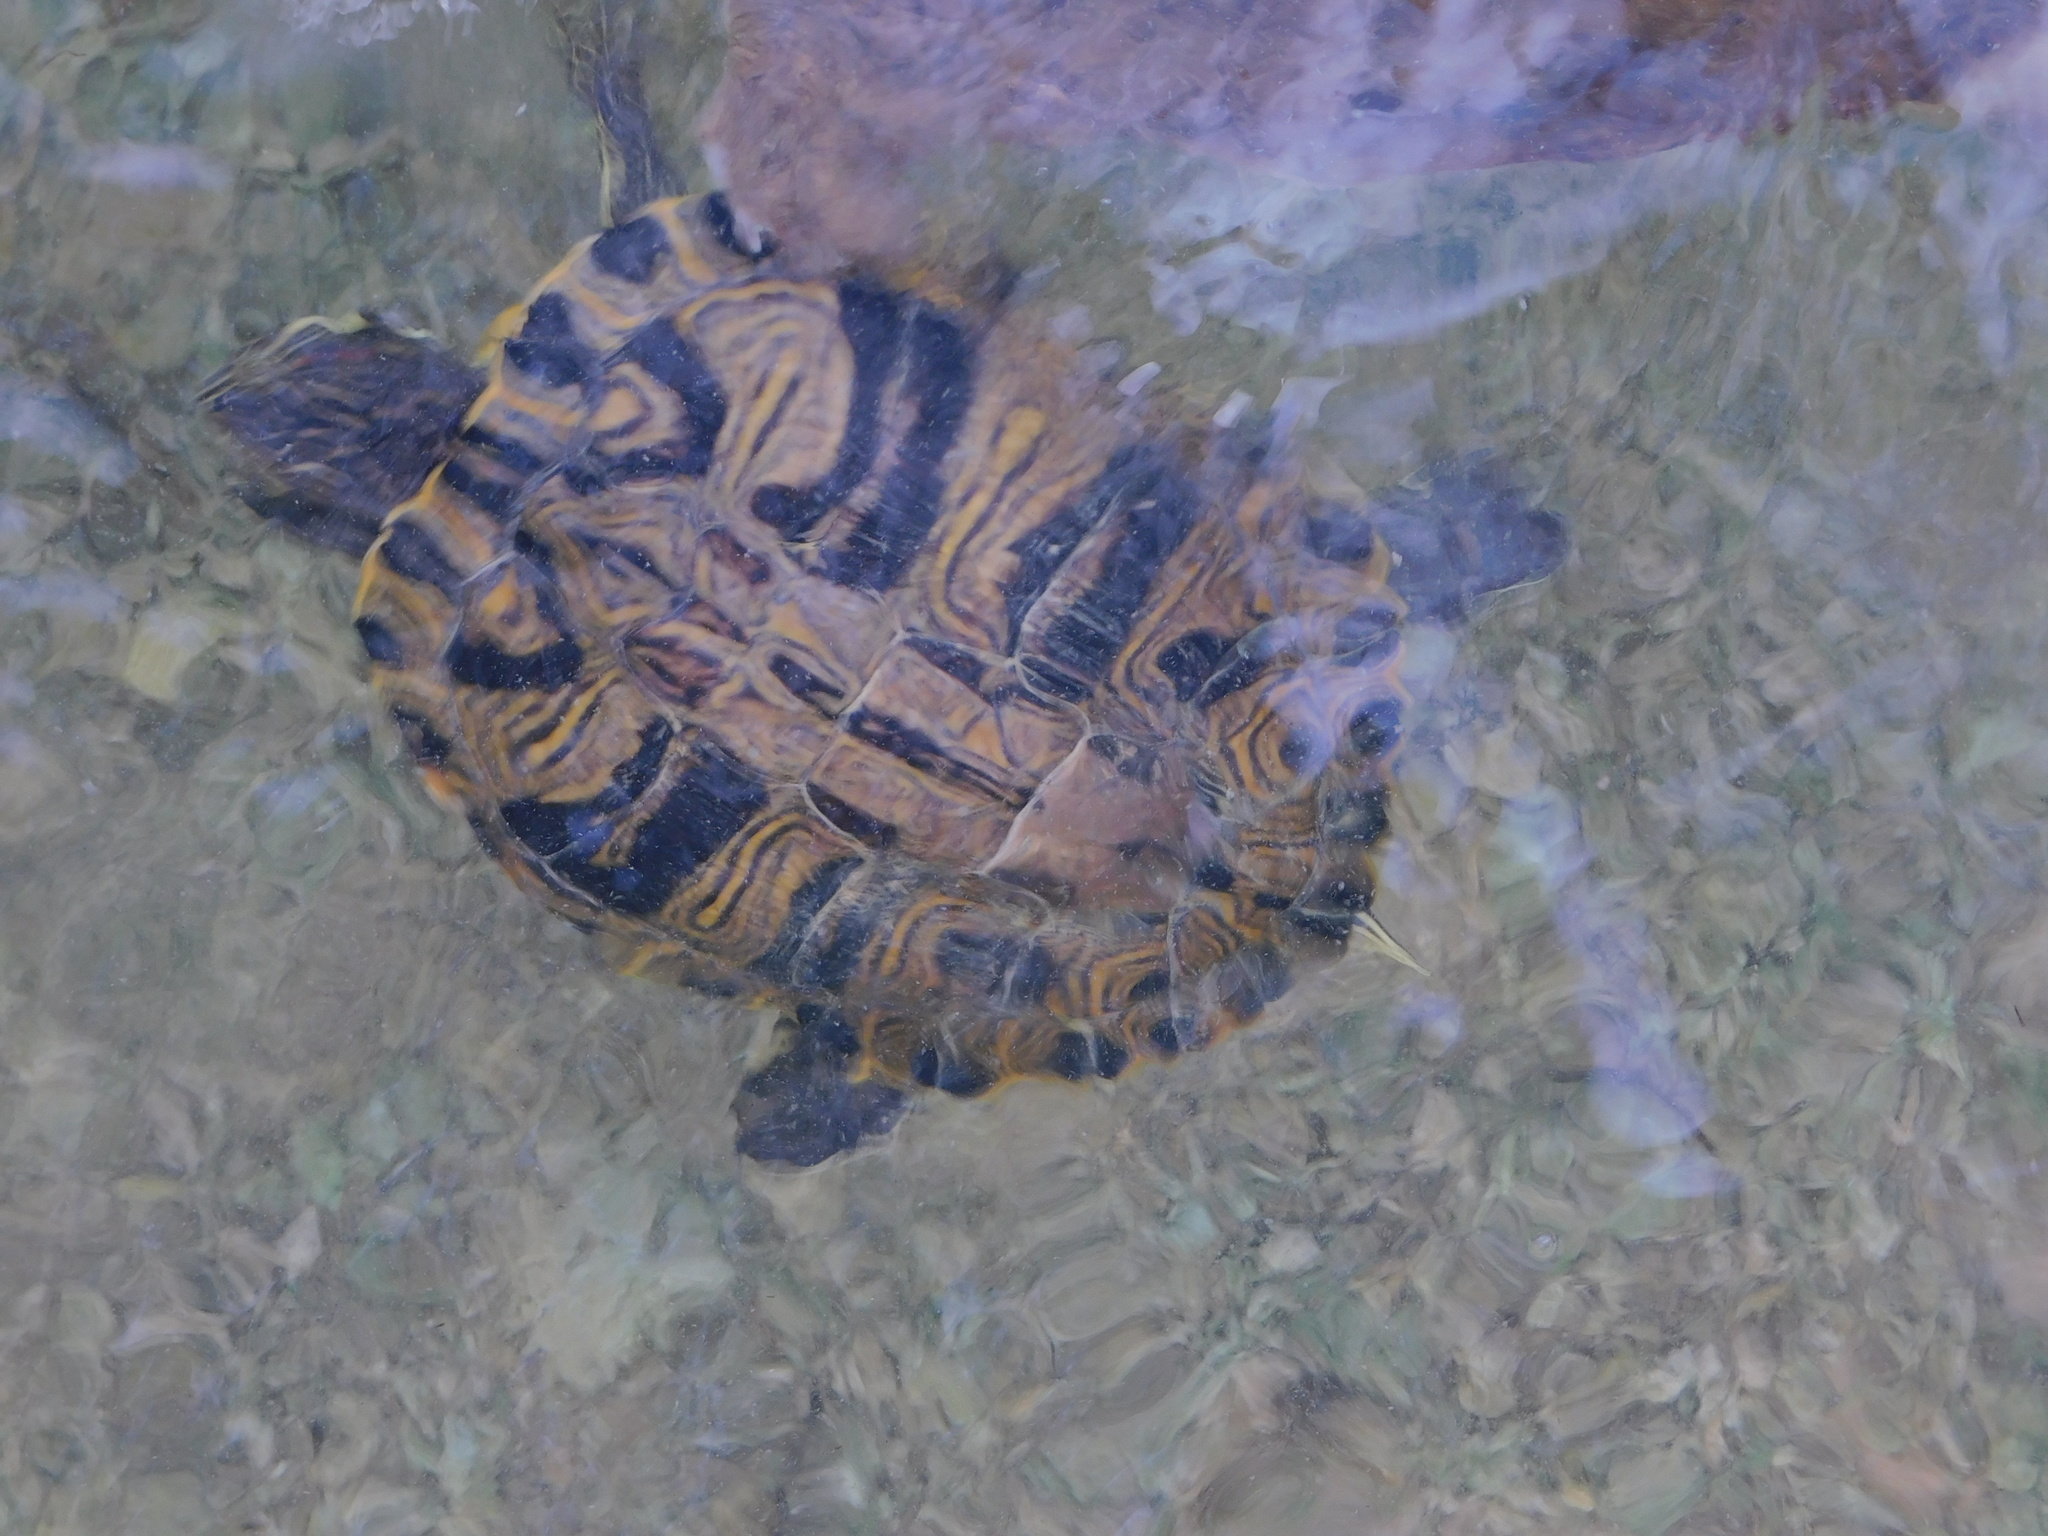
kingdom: Animalia
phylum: Chordata
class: Testudines
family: Emydidae
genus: Trachemys
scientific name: Trachemys scripta
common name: Slider
